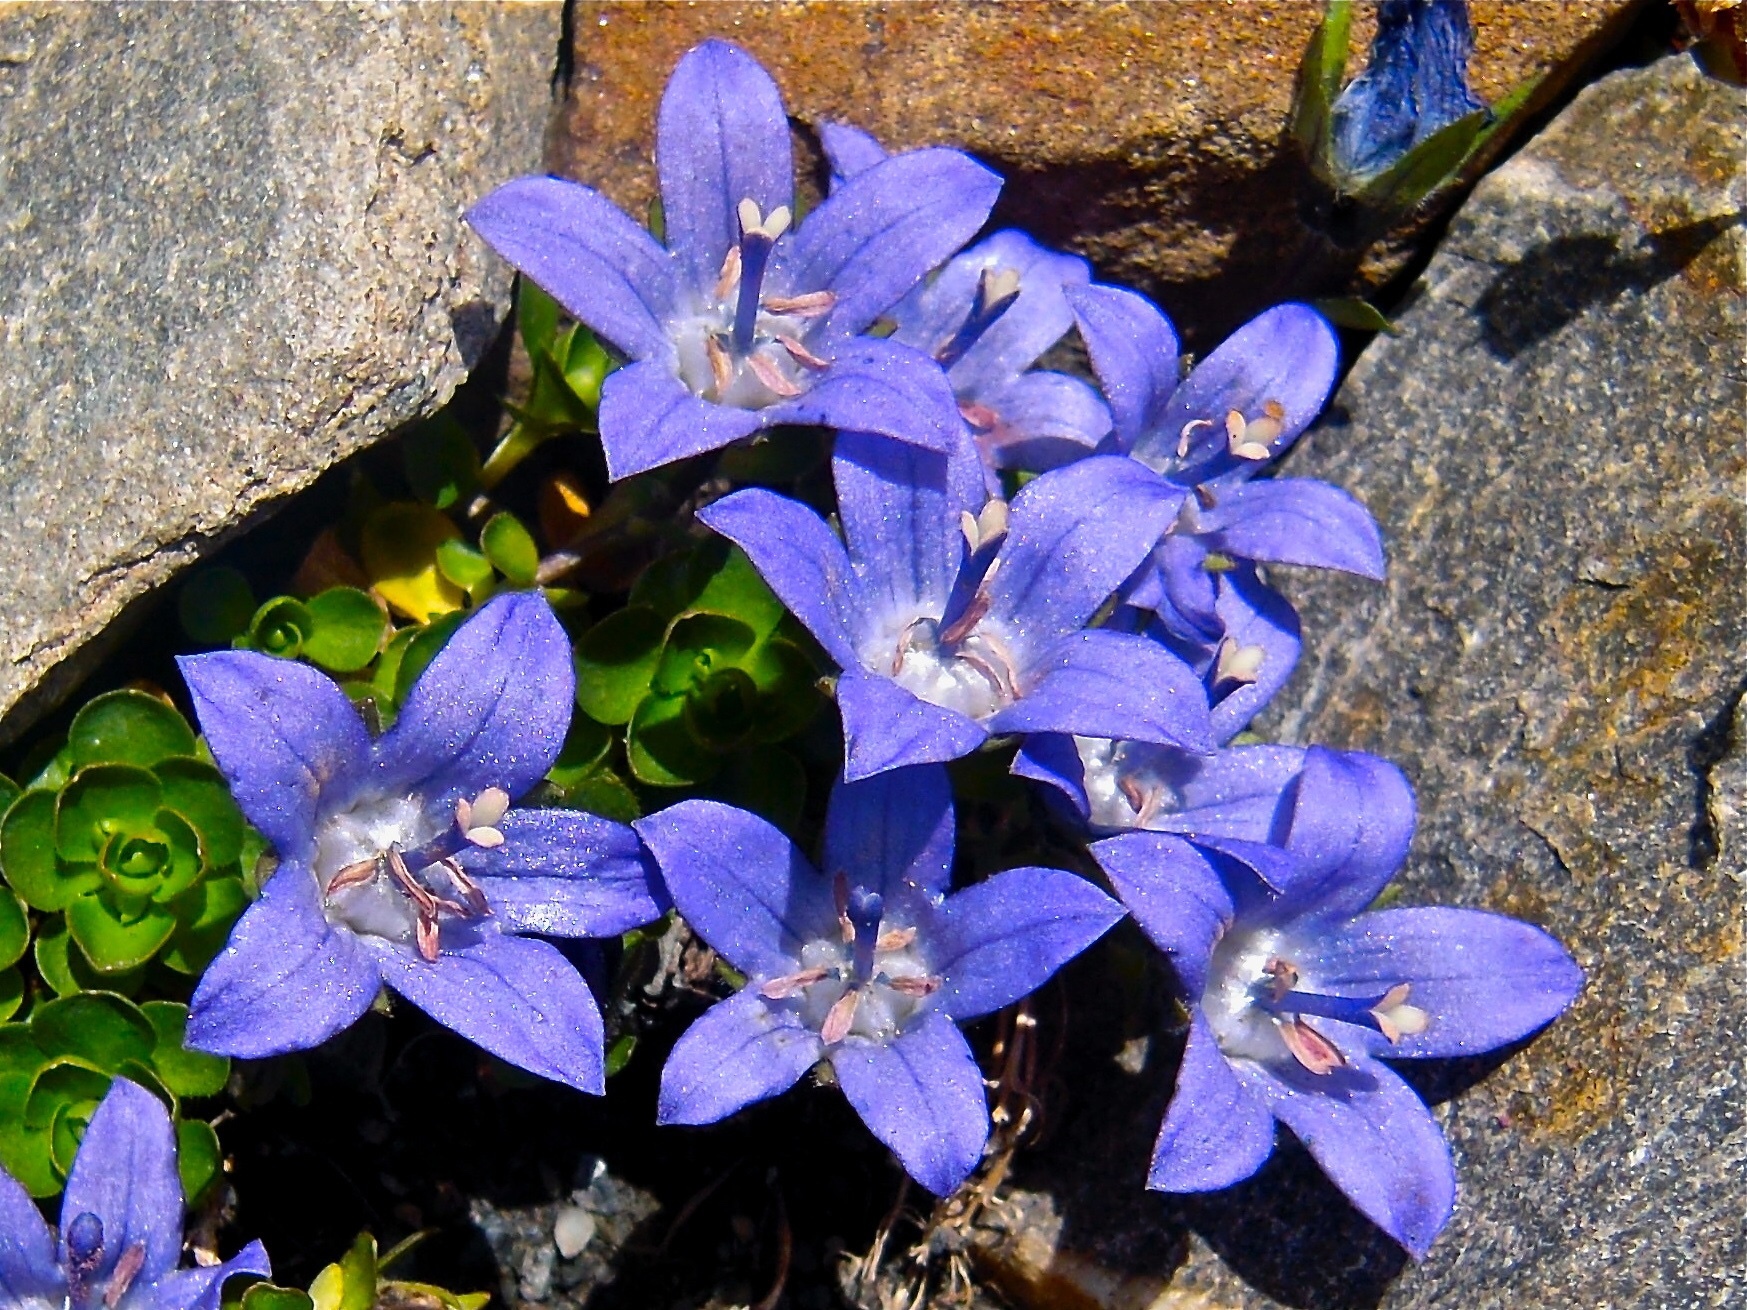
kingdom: Plantae
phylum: Tracheophyta
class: Magnoliopsida
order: Asterales
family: Campanulaceae
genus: Campanula
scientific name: Campanula cenisia
